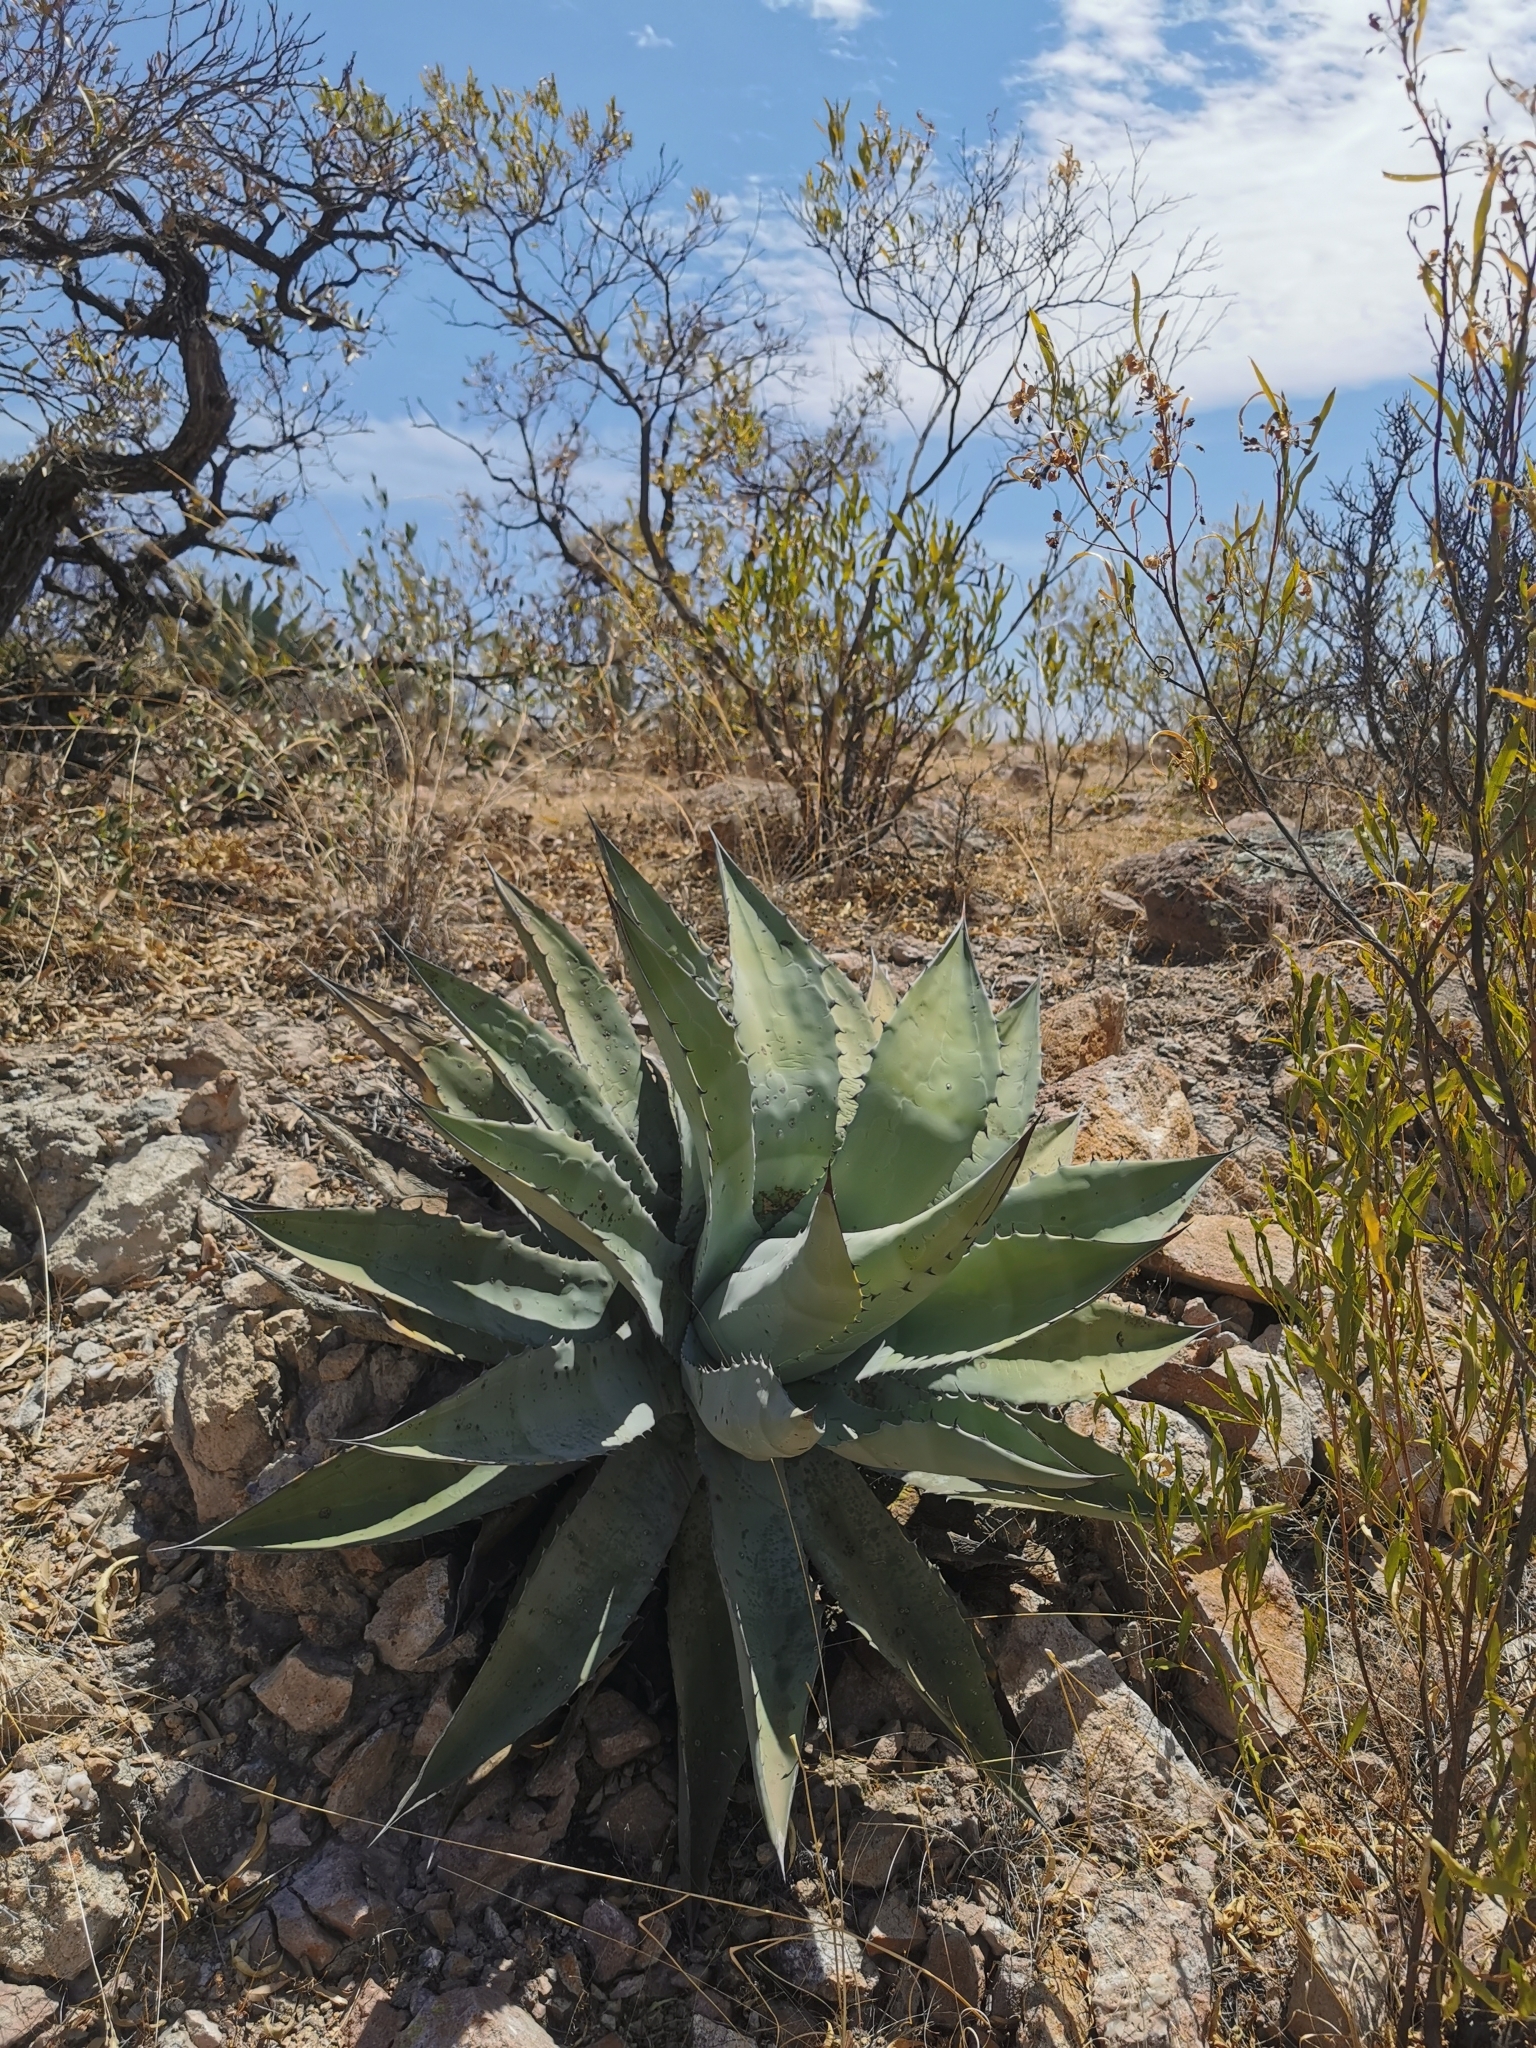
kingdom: Plantae
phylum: Tracheophyta
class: Liliopsida
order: Asparagales
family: Asparagaceae
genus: Agave
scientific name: Agave durangensis
